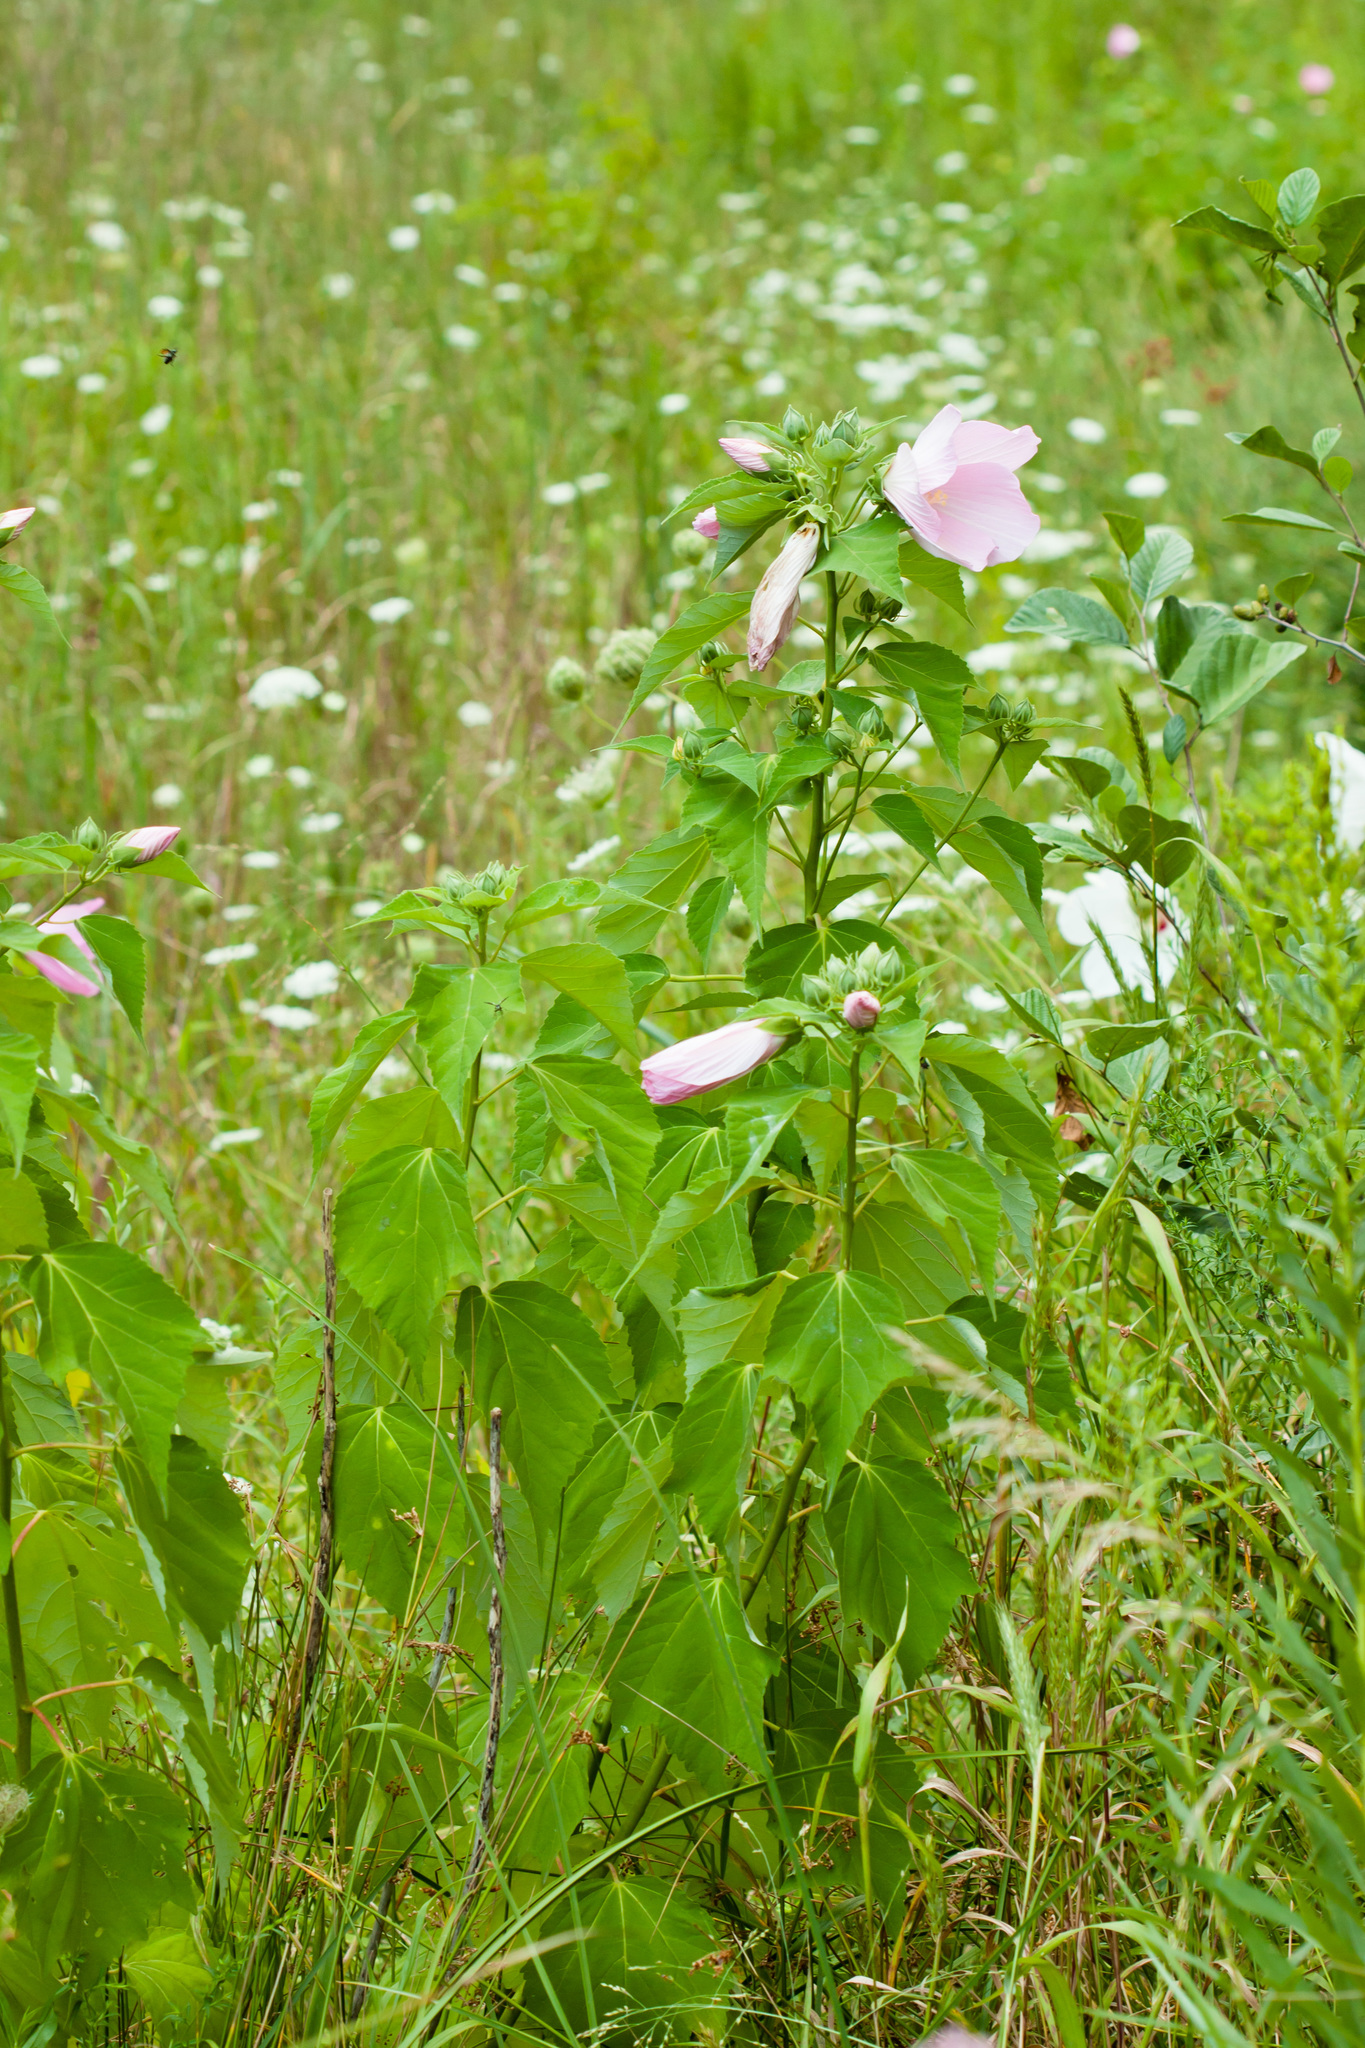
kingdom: Plantae
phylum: Tracheophyta
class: Magnoliopsida
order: Malvales
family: Malvaceae
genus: Hibiscus
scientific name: Hibiscus moscheutos
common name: Common rose-mallow
